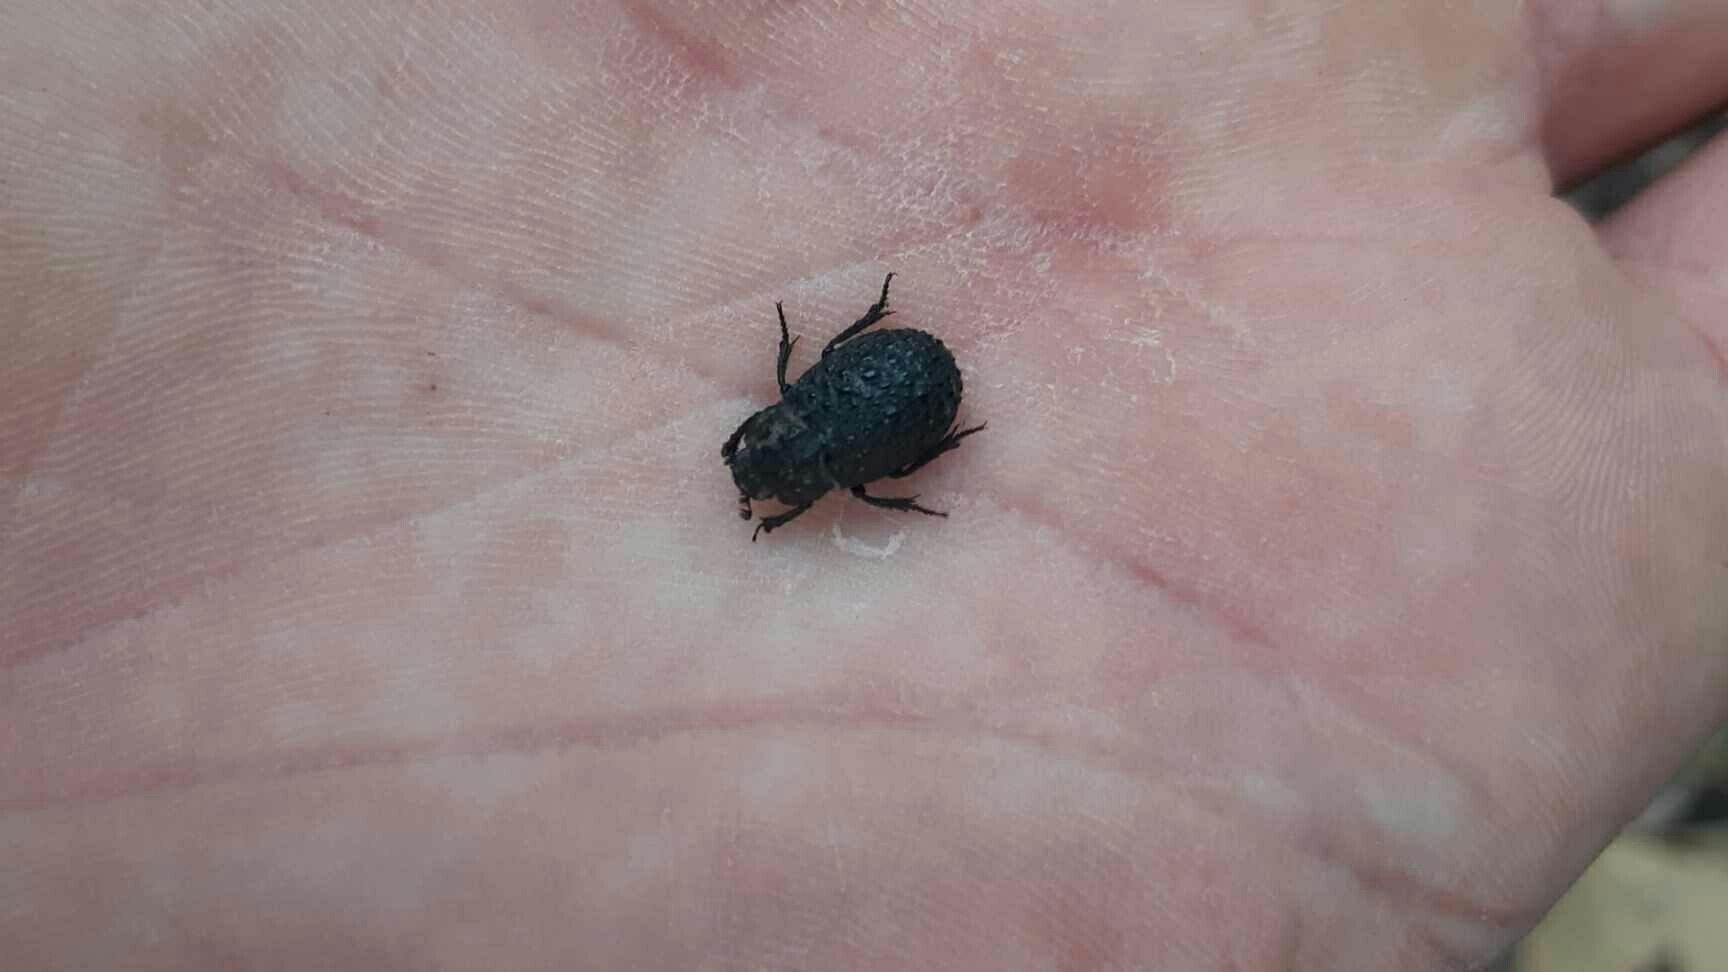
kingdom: Animalia
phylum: Arthropoda
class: Insecta
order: Coleoptera
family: Trogidae
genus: Trox
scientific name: Trox perlatus
